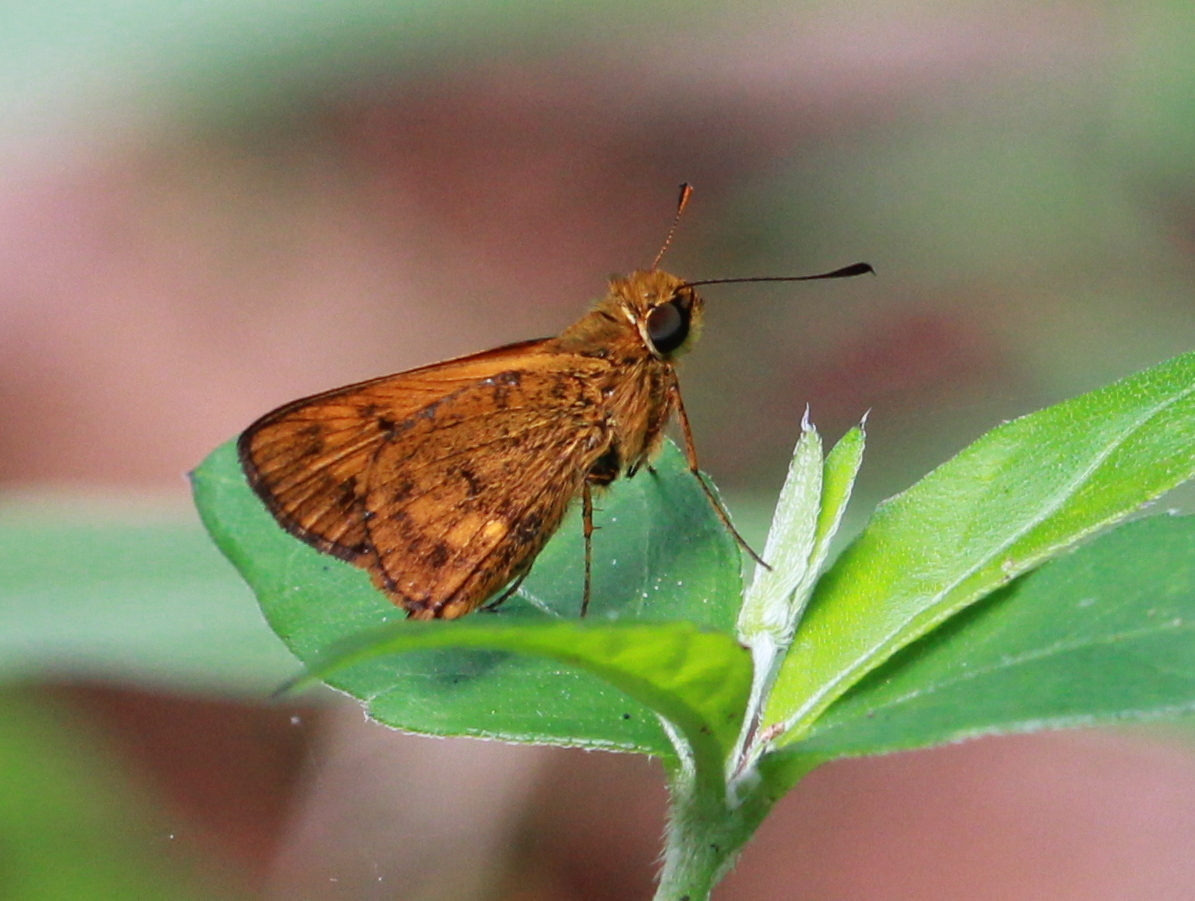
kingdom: Animalia
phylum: Arthropoda
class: Insecta
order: Lepidoptera
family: Hesperiidae
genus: Oriens
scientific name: Oriens goloides
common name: Smaller dartlet
